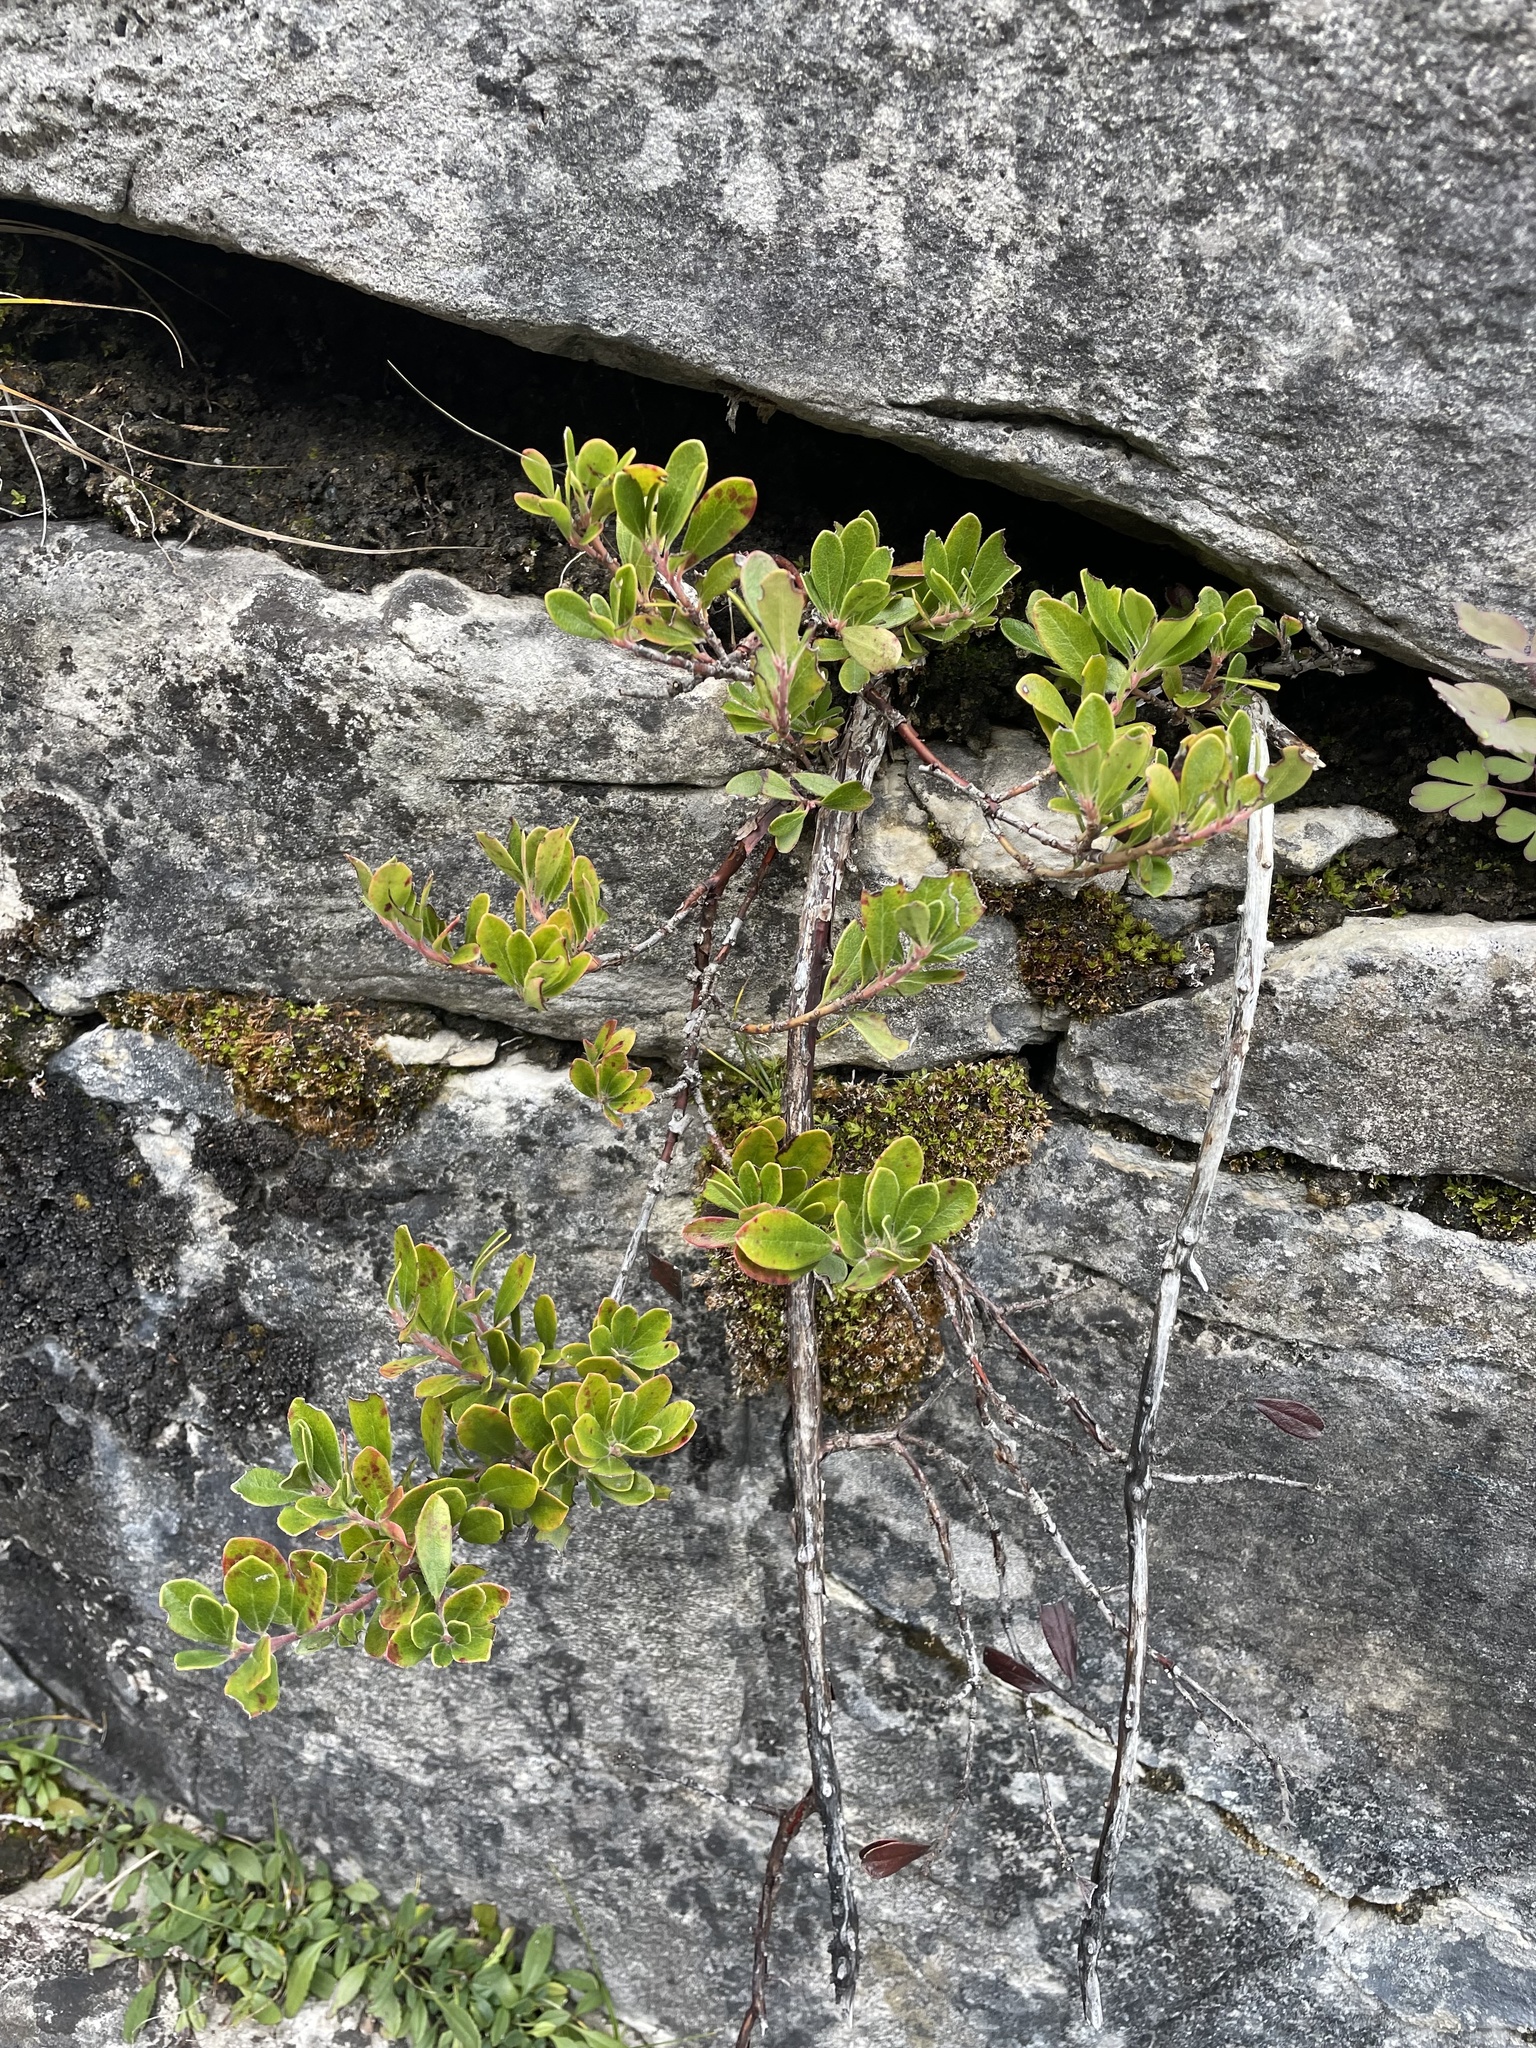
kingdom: Plantae
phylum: Tracheophyta
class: Magnoliopsida
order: Ericales
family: Ericaceae
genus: Arctostaphylos
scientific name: Arctostaphylos uva-ursi
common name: Bearberry
